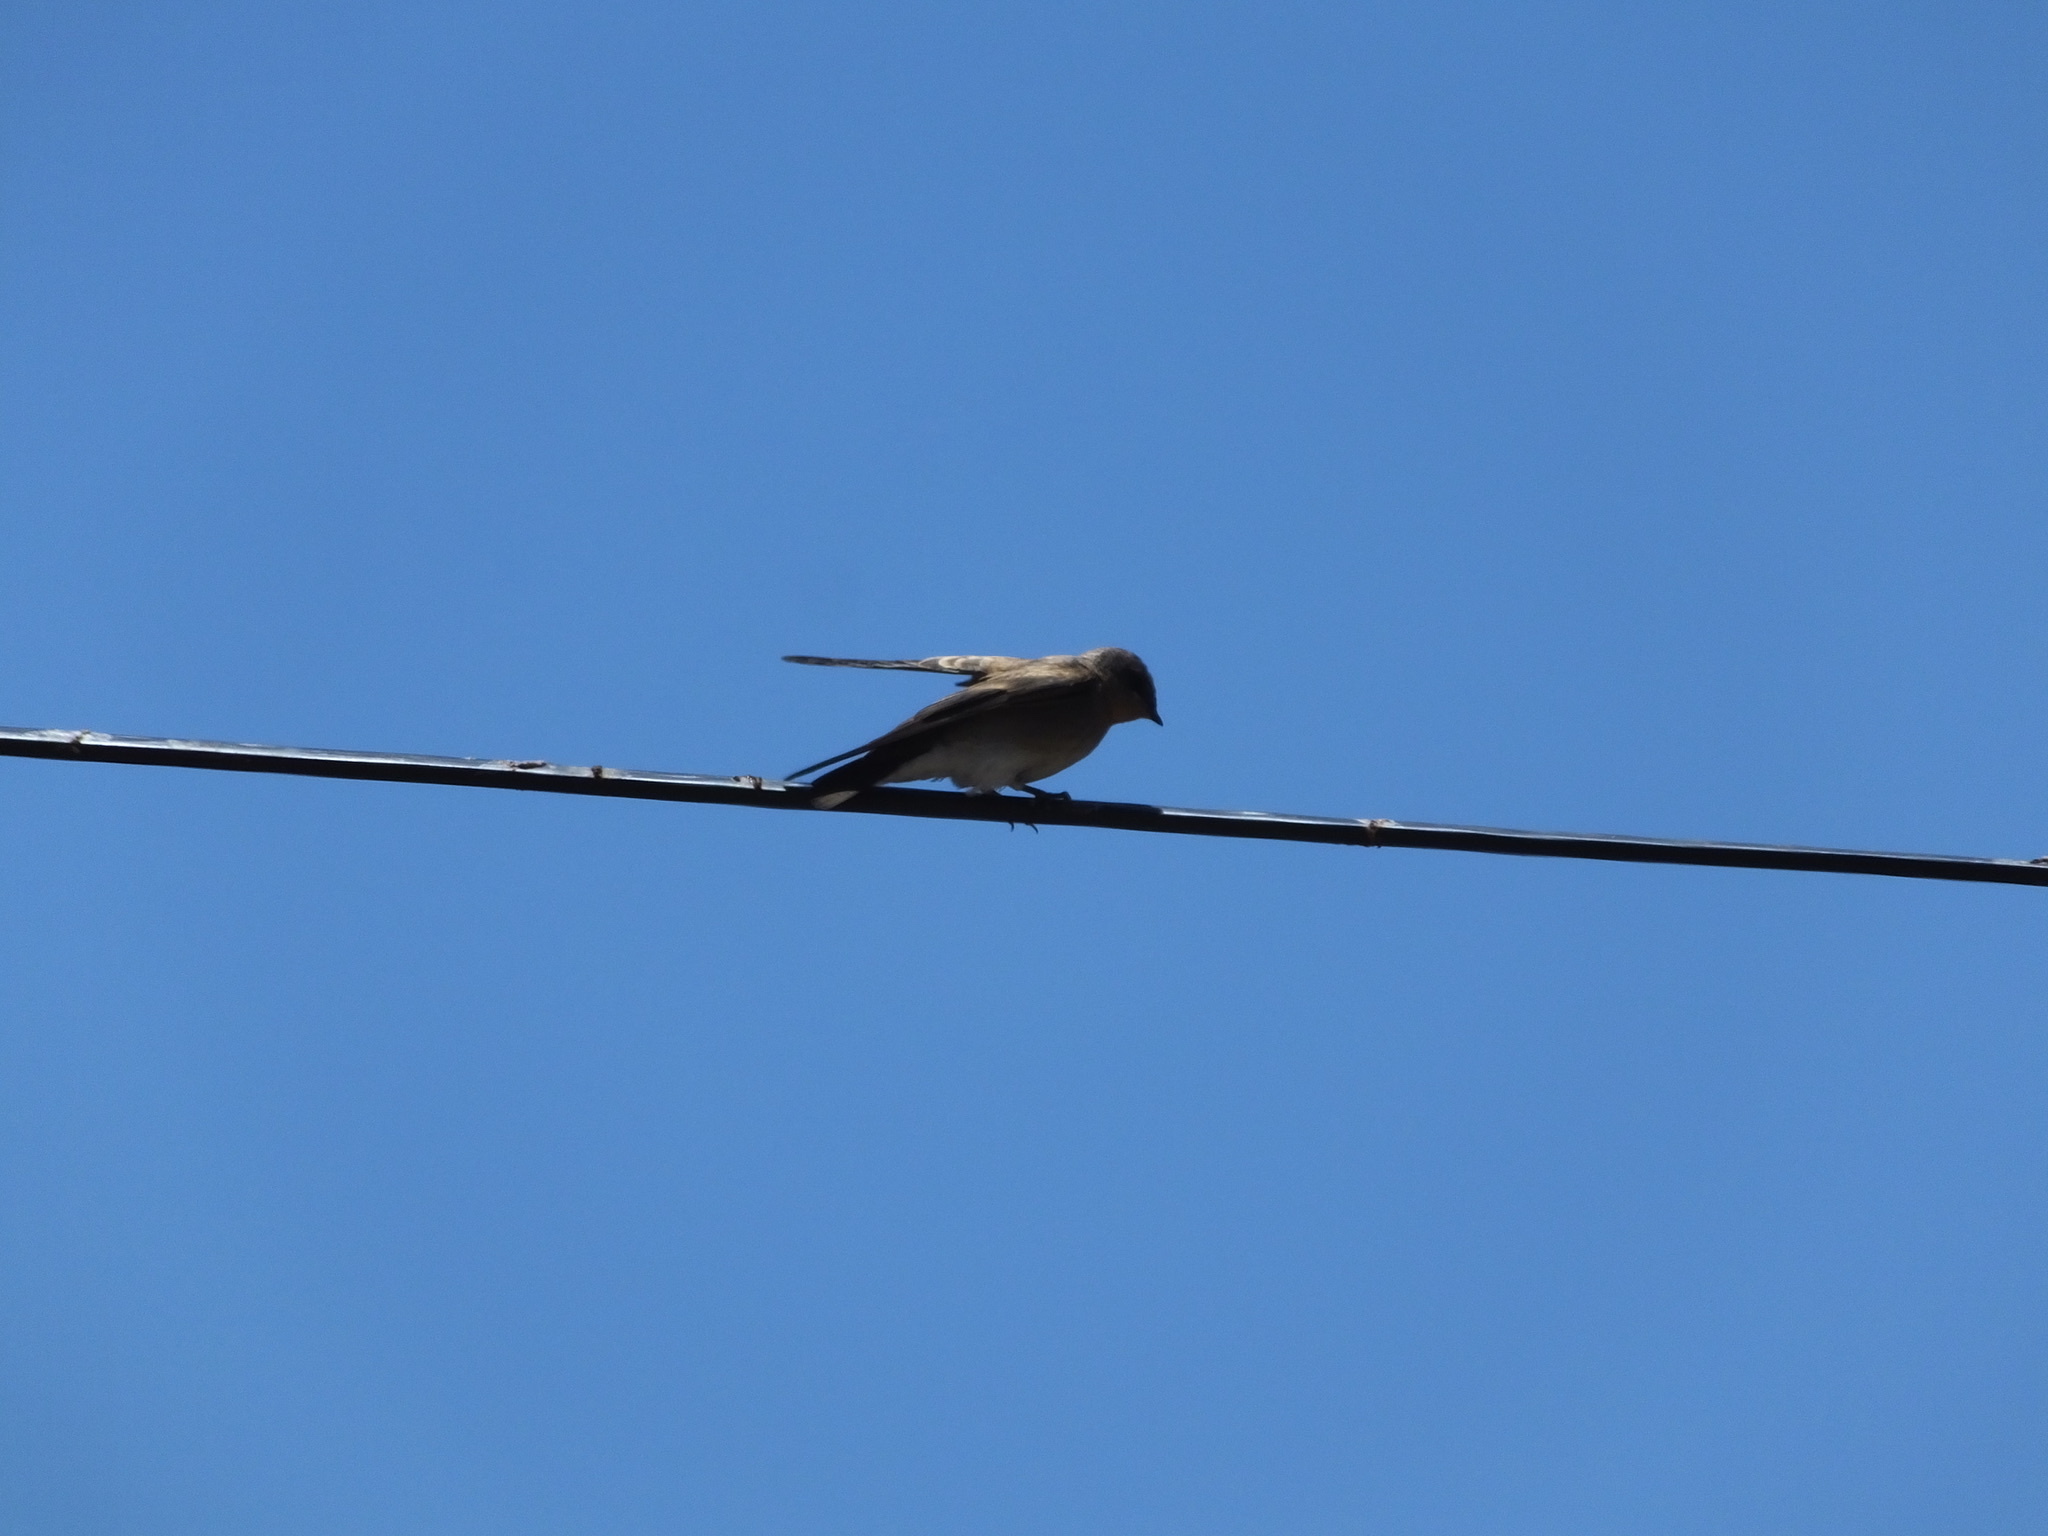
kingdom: Animalia
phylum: Chordata
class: Aves
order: Passeriformes
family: Hirundinidae
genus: Stelgidopteryx
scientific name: Stelgidopteryx serripennis
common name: Northern rough-winged swallow
